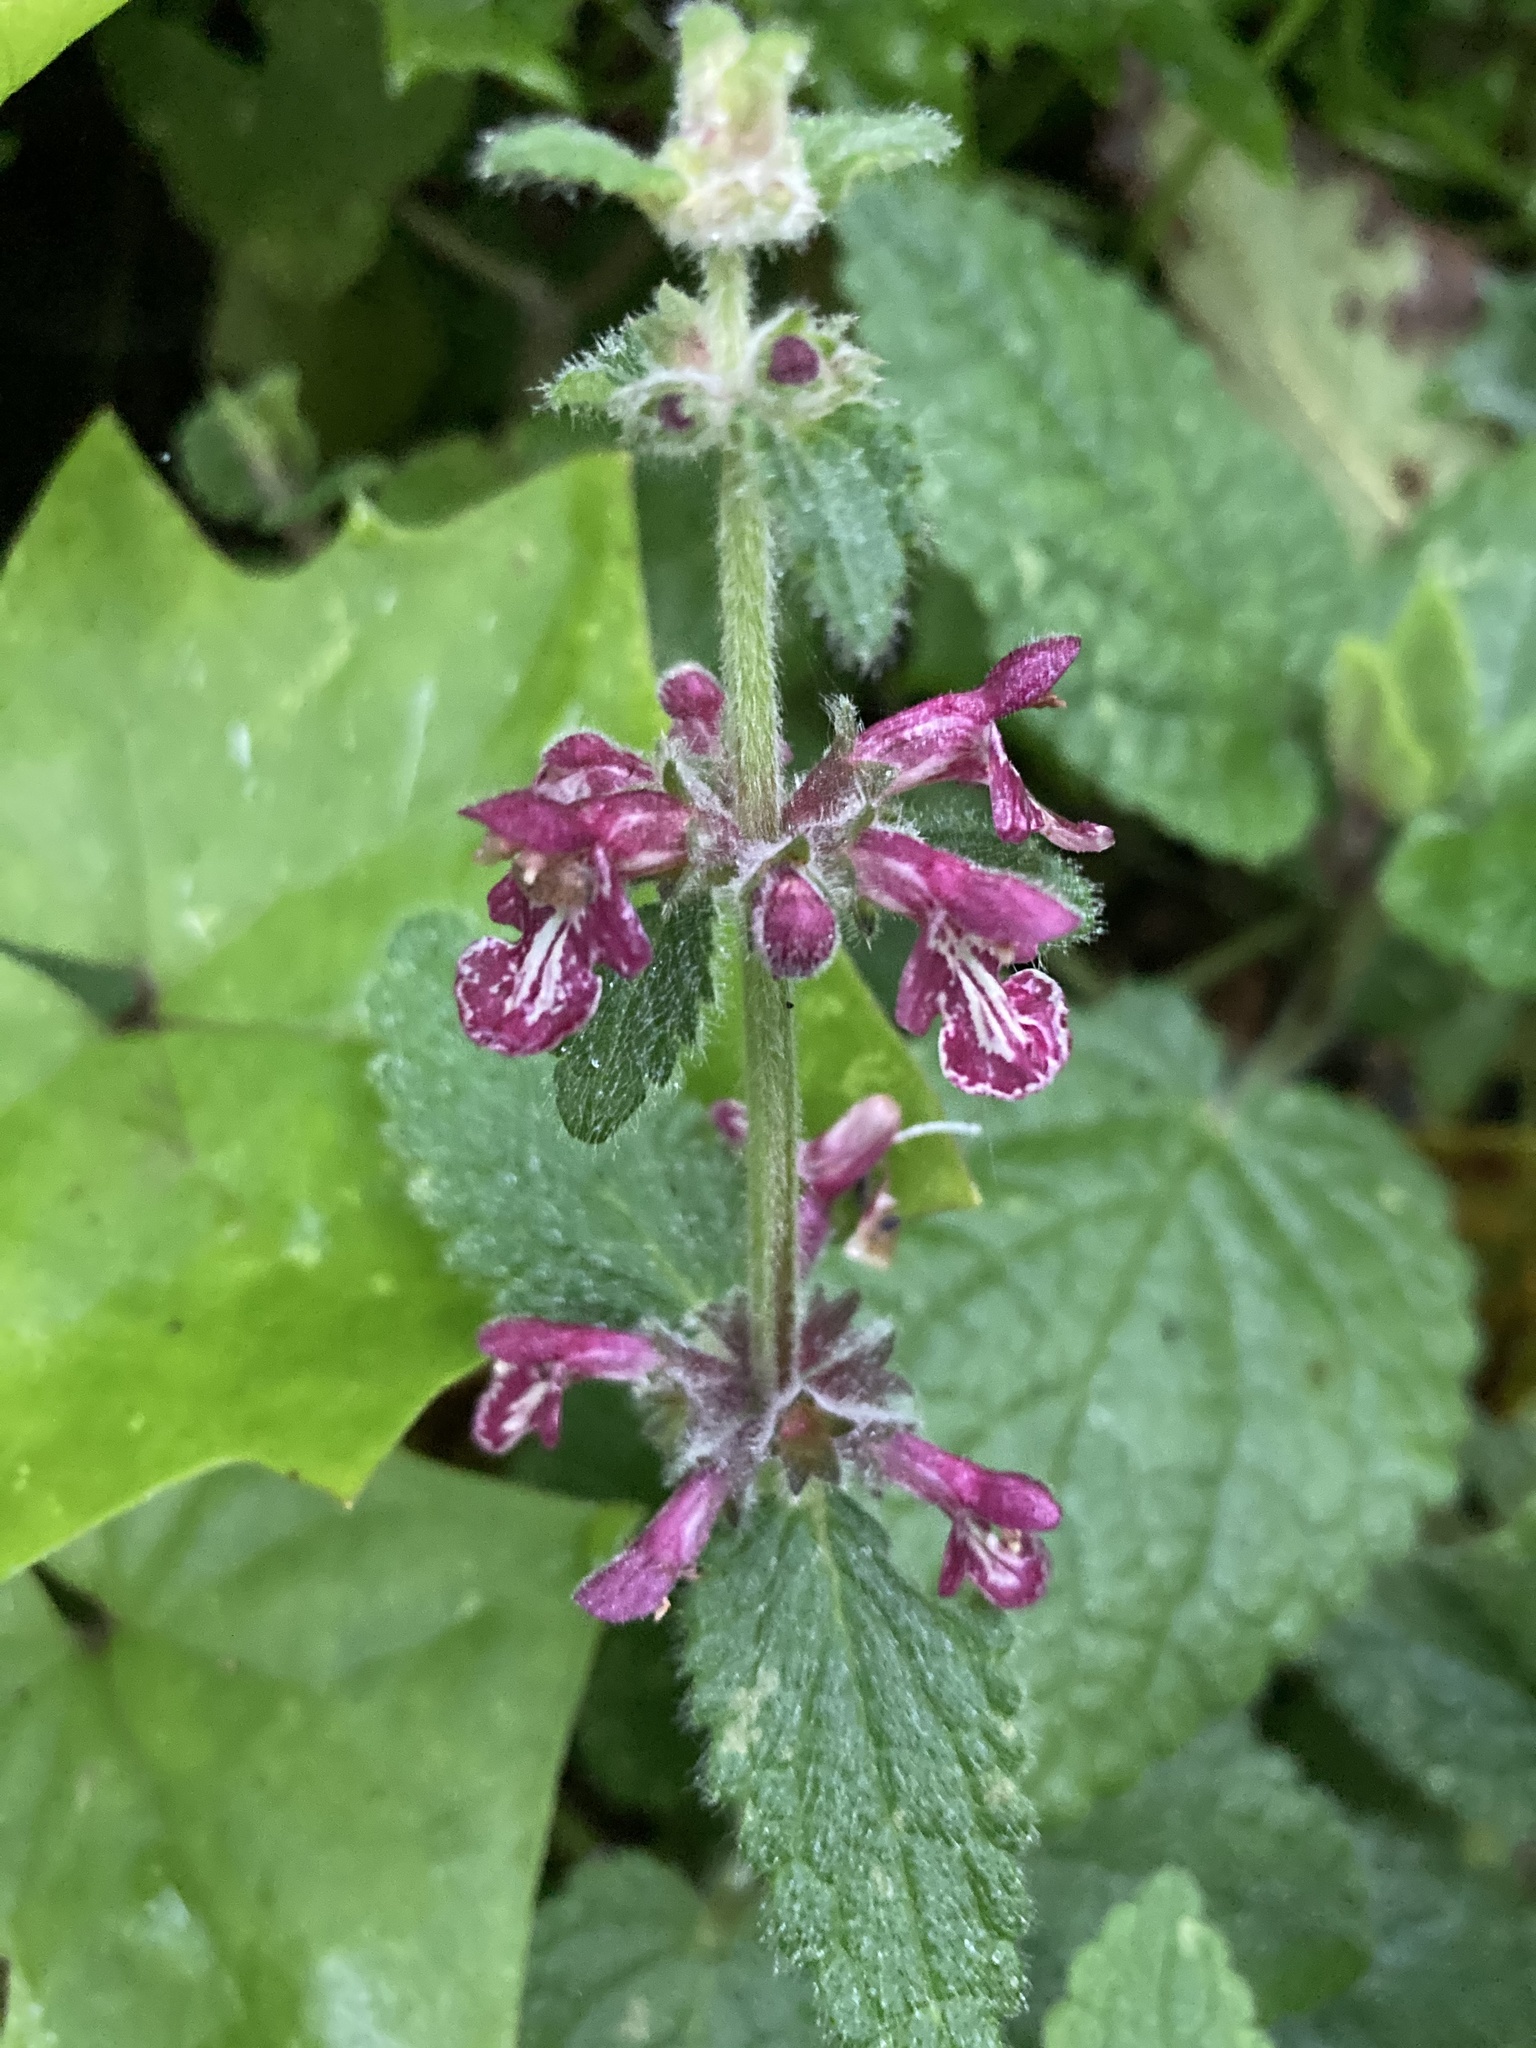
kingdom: Plantae
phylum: Tracheophyta
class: Magnoliopsida
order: Lamiales
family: Lamiaceae
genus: Stachys
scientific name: Stachys chamissonis
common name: Coastal hedge-nettle
